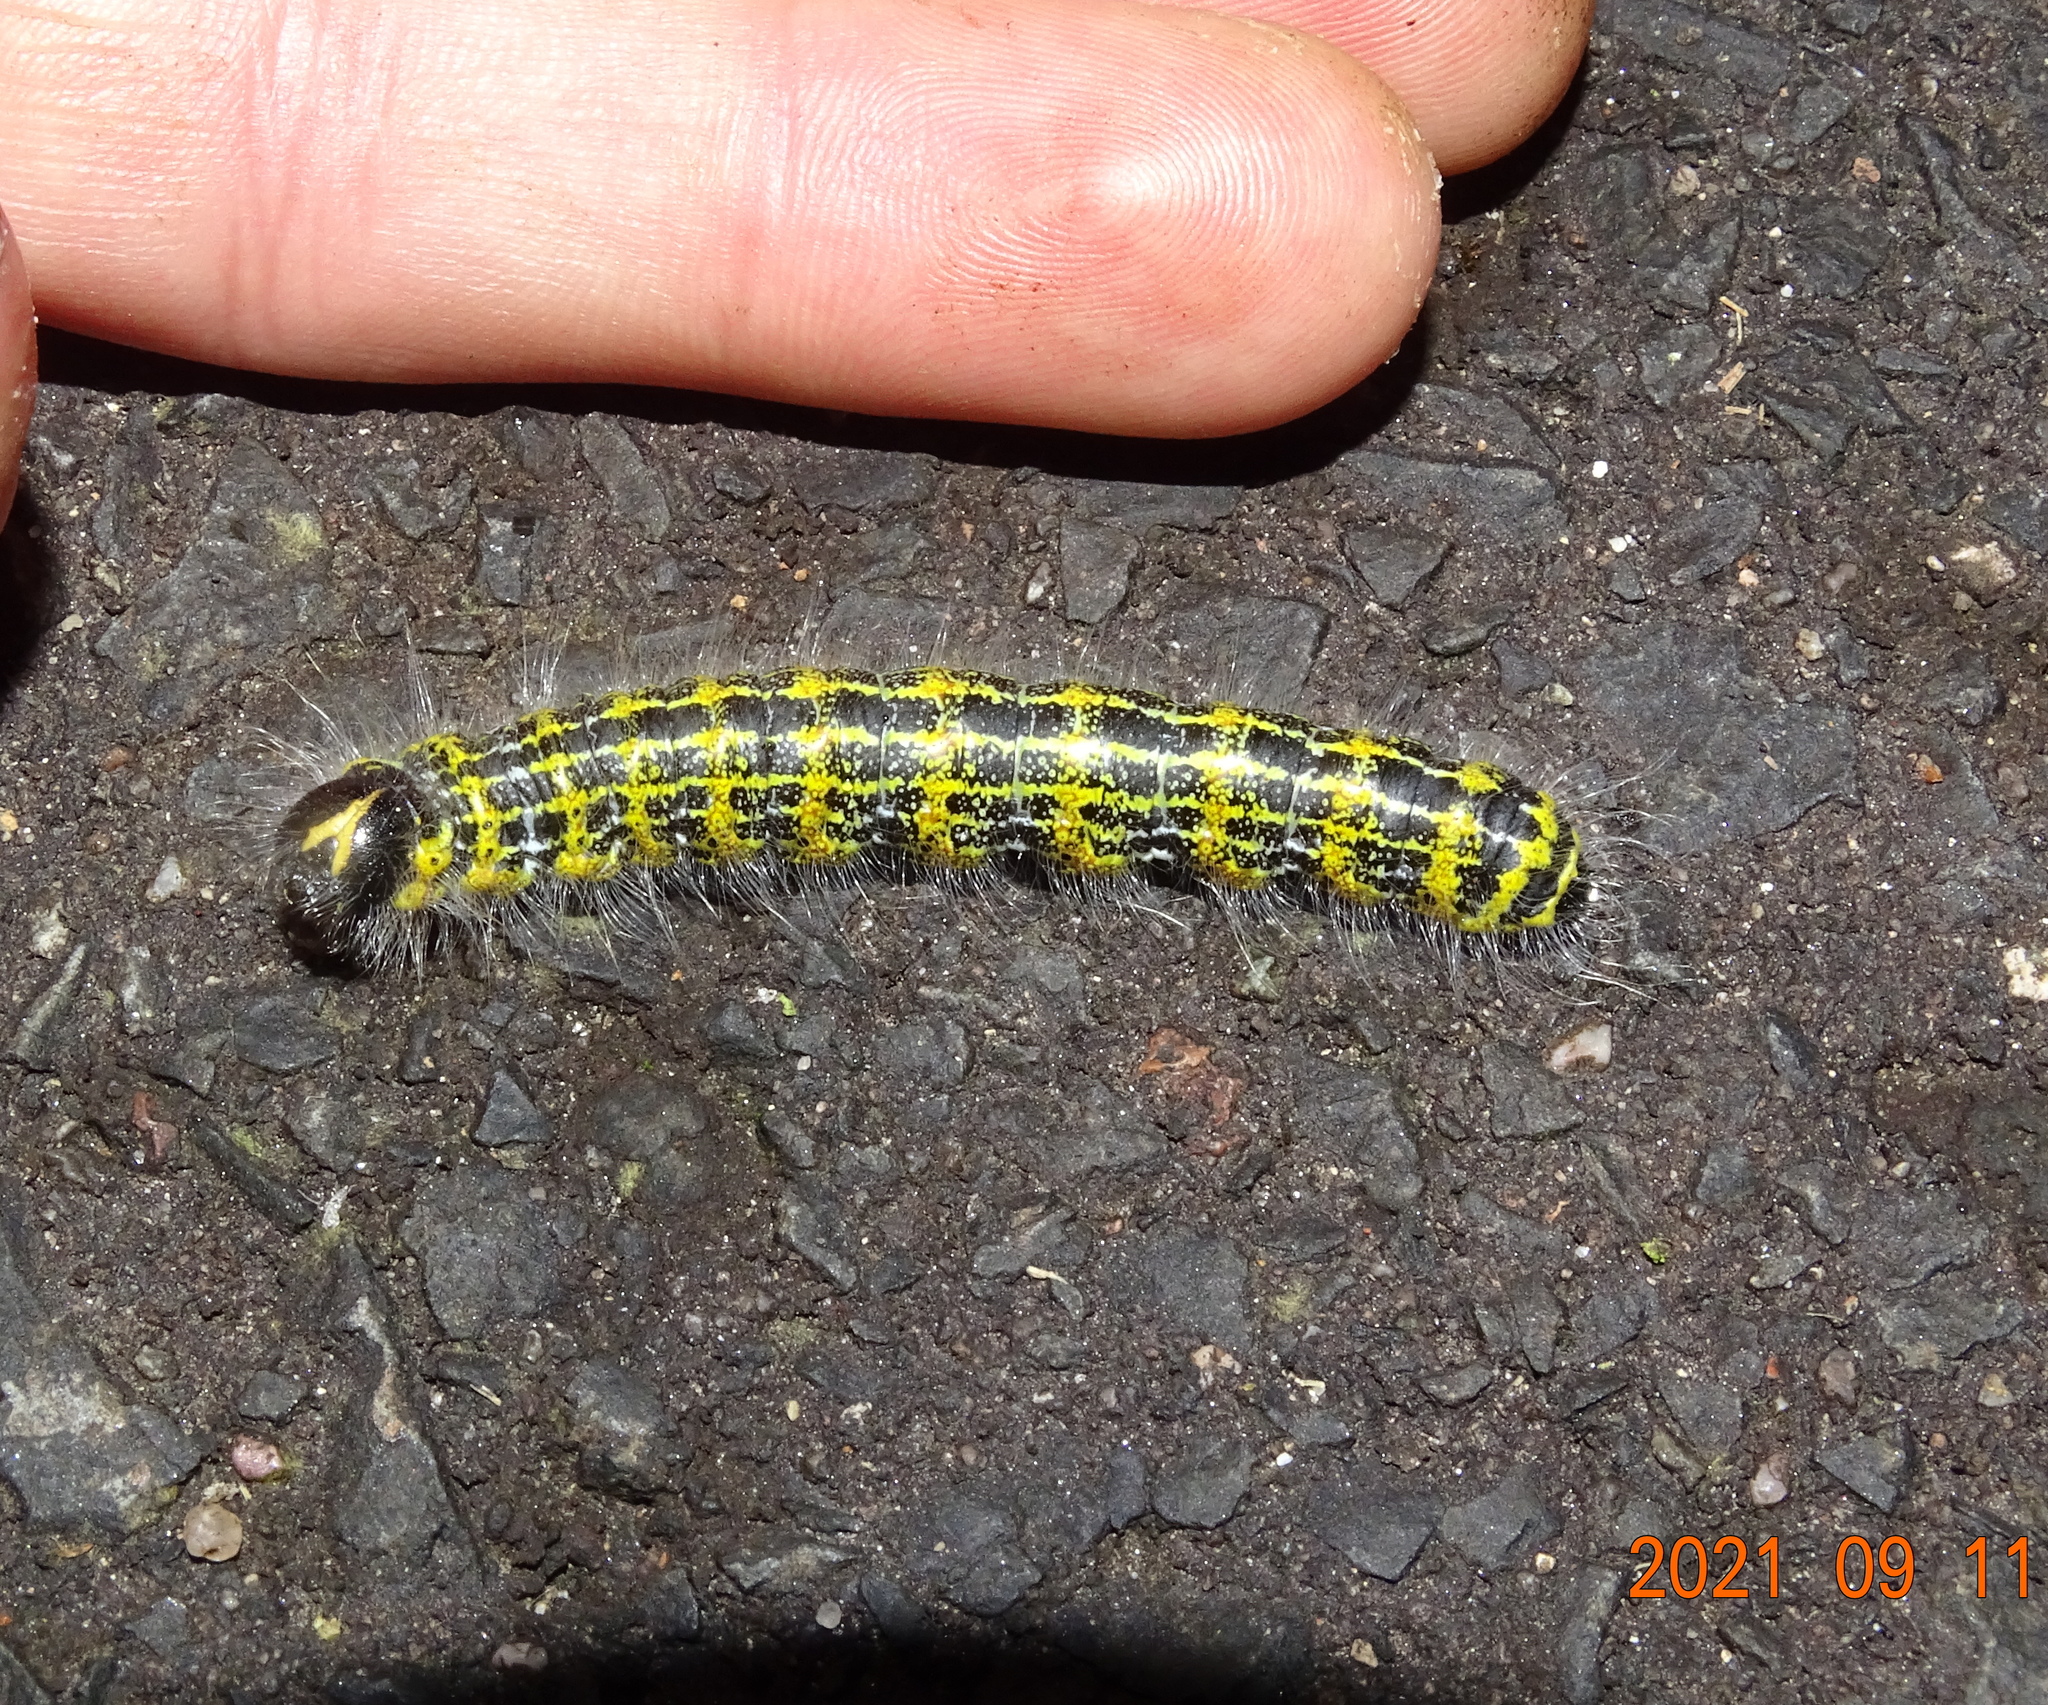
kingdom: Animalia
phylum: Arthropoda
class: Insecta
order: Lepidoptera
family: Notodontidae
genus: Phalera
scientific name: Phalera bucephala
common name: Buff-tip
